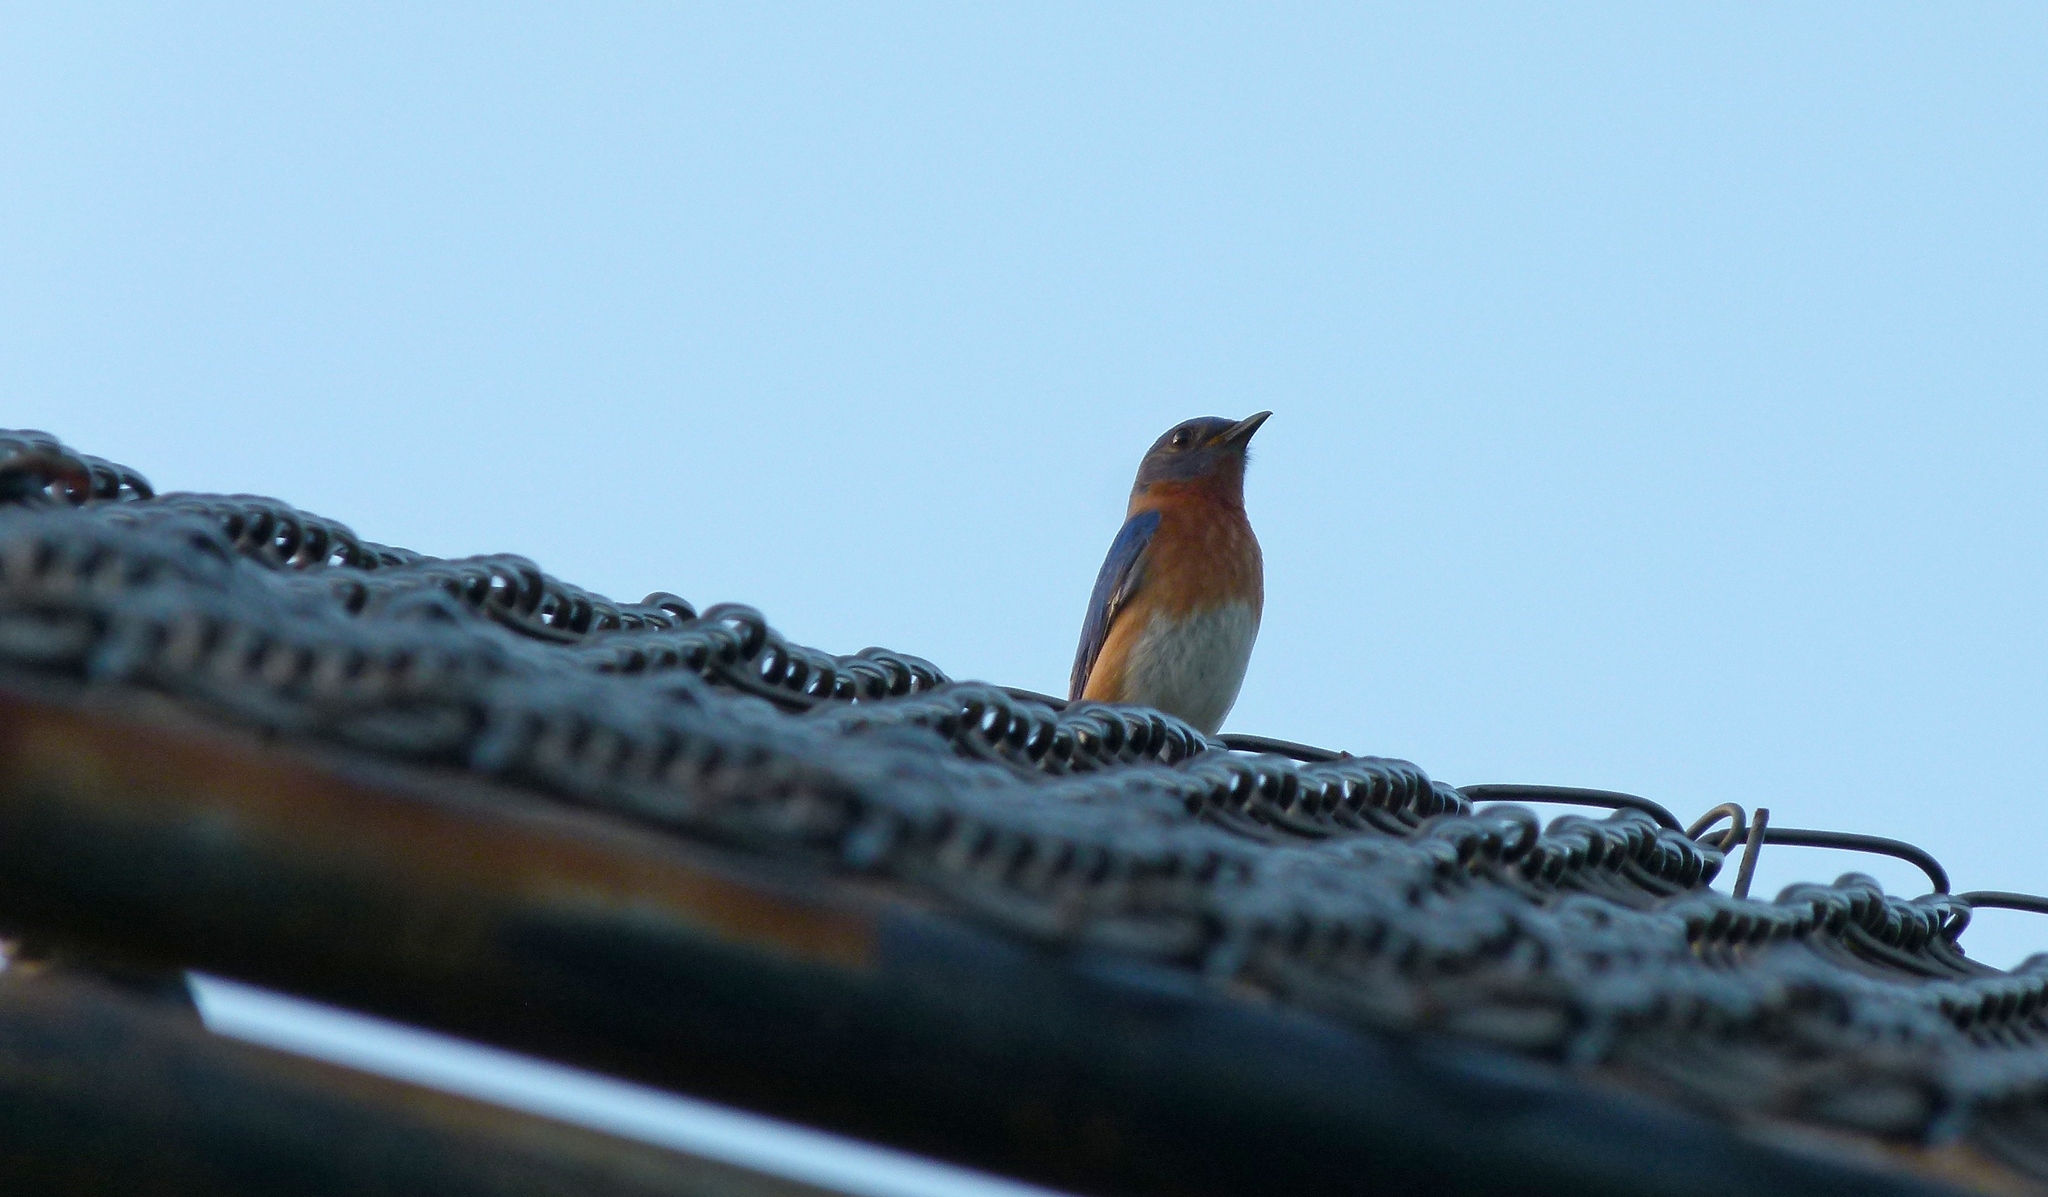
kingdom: Animalia
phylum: Chordata
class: Aves
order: Passeriformes
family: Turdidae
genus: Sialia
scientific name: Sialia sialis
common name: Eastern bluebird
